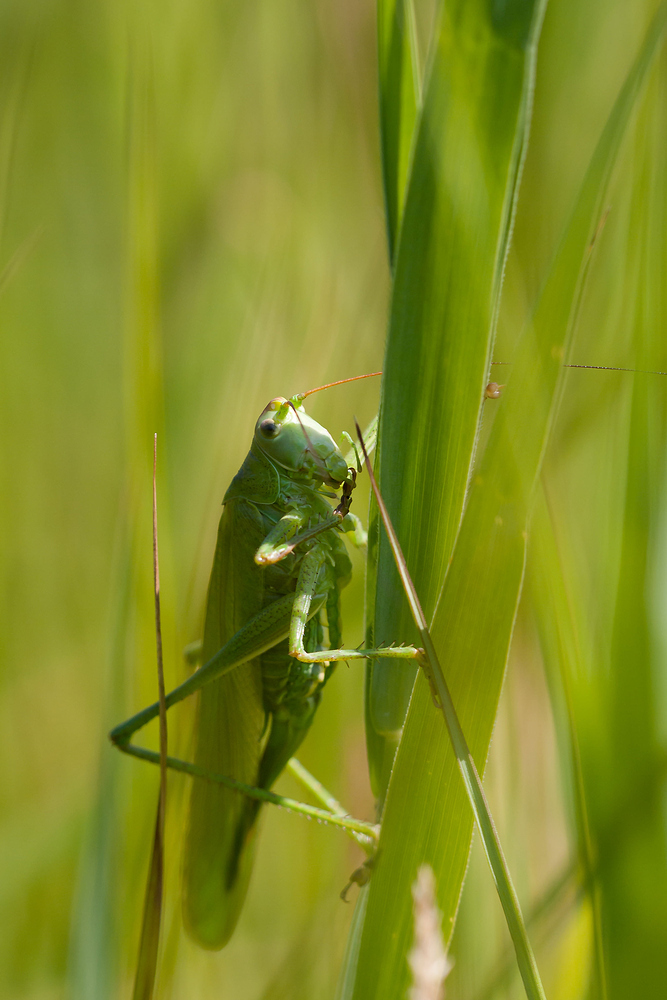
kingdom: Animalia
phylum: Arthropoda
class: Insecta
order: Orthoptera
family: Tettigoniidae
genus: Tettigonia
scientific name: Tettigonia viridissima
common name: Great green bush-cricket
